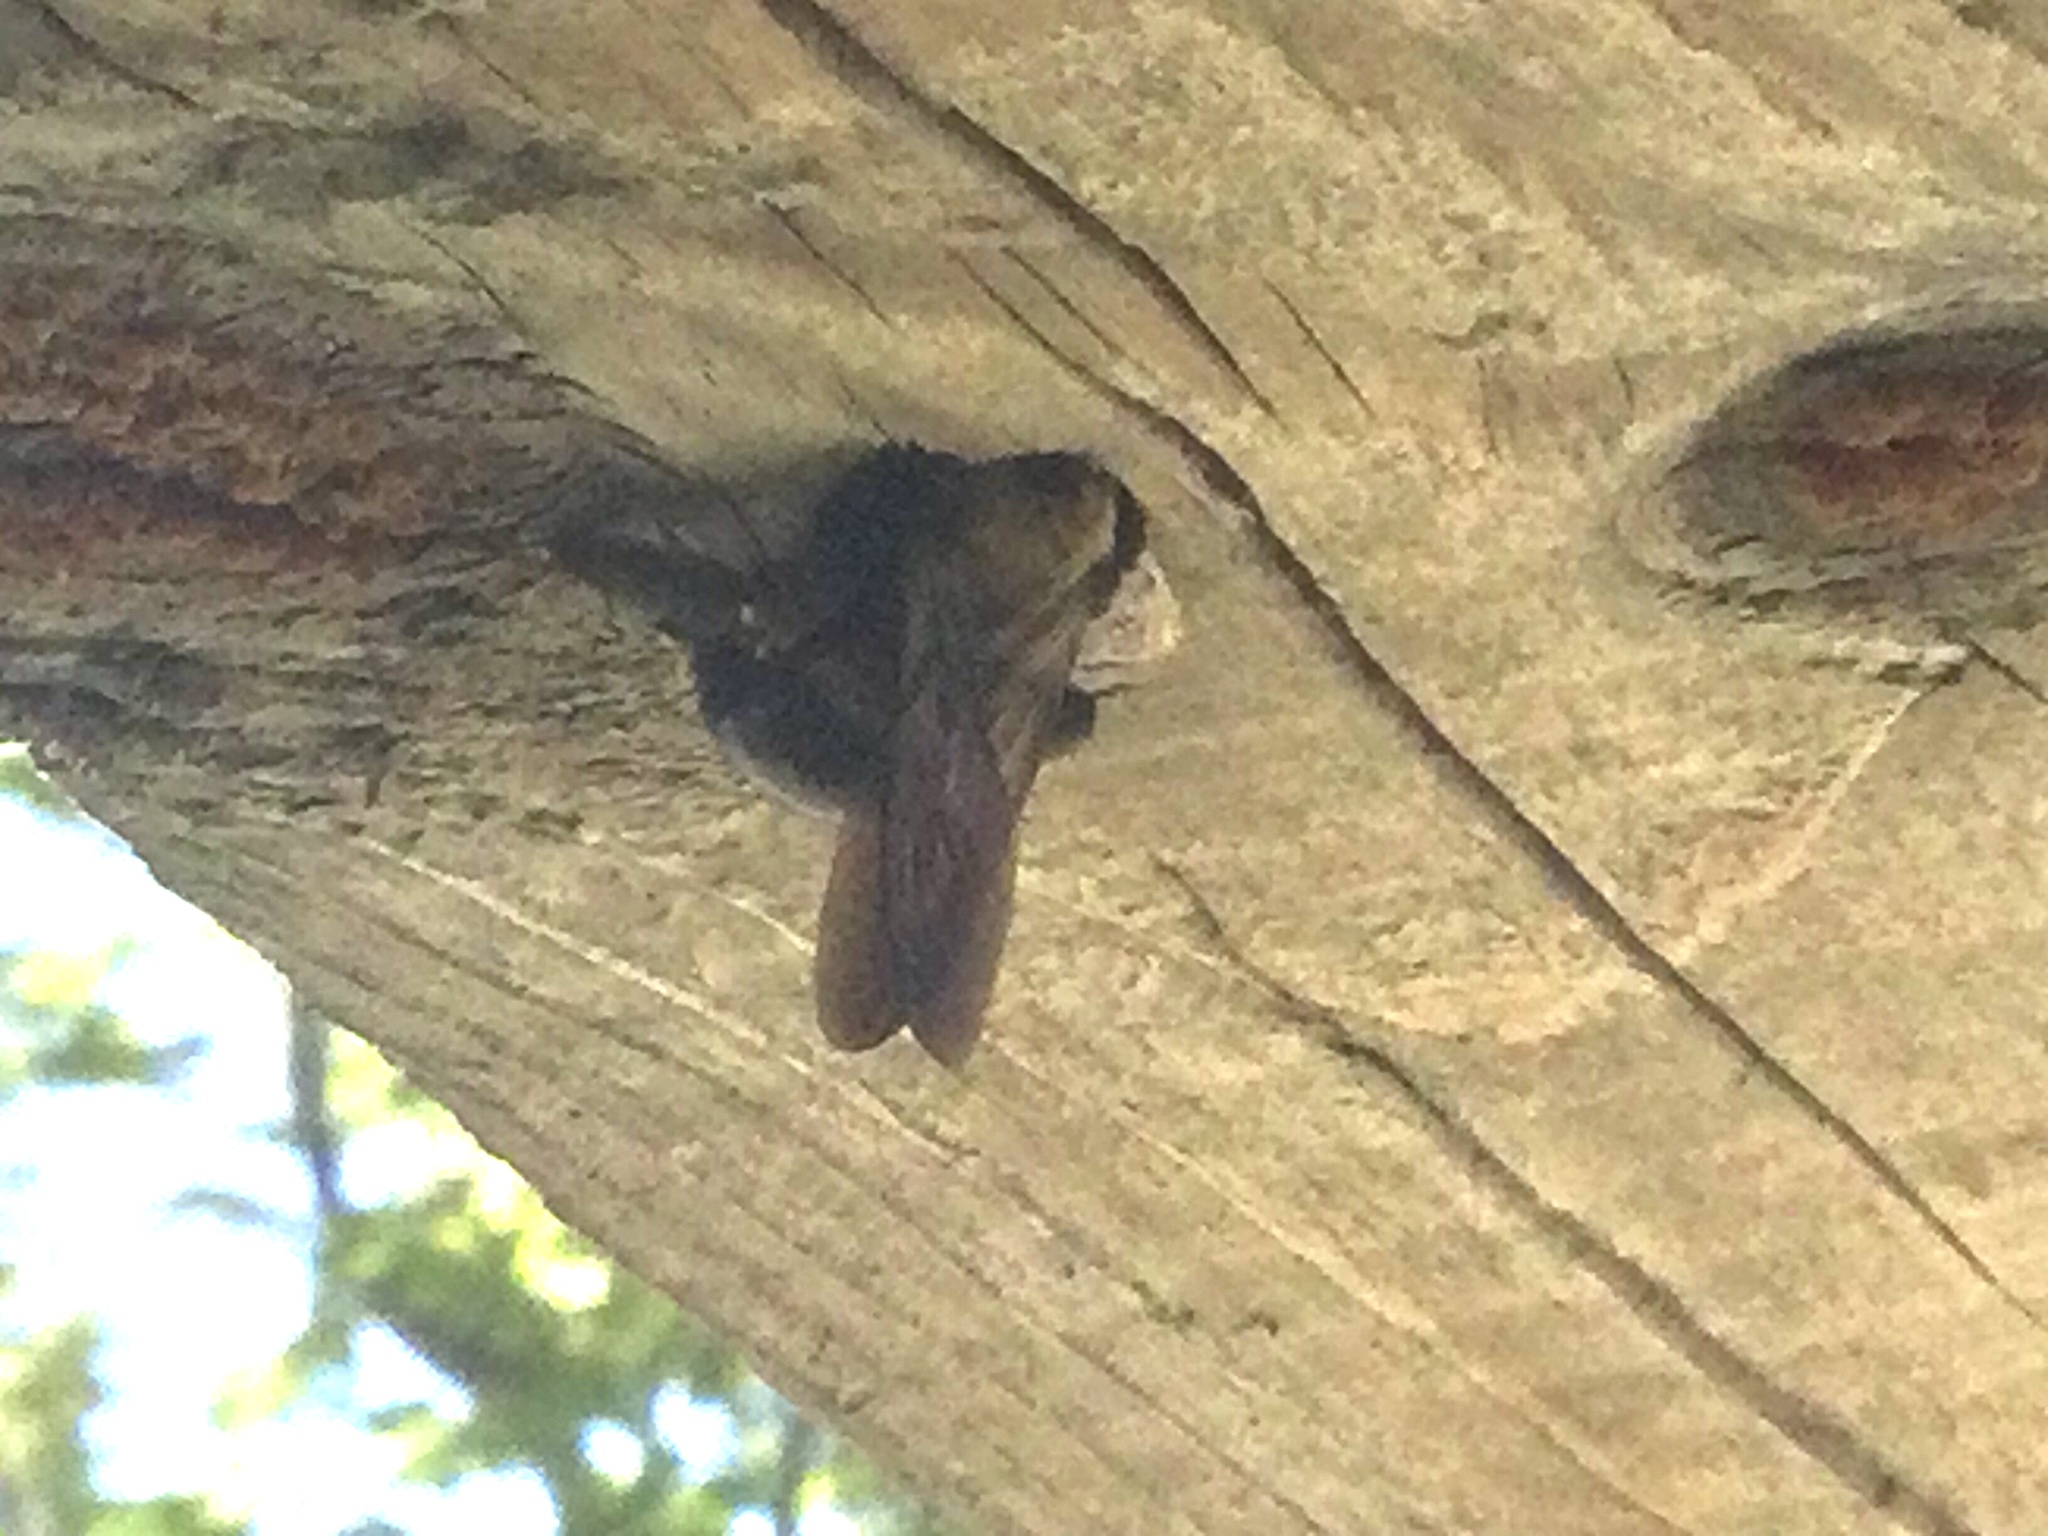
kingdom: Animalia
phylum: Arthropoda
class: Insecta
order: Hymenoptera
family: Apidae
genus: Xylocopa
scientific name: Xylocopa virginica
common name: Carpenter bee
